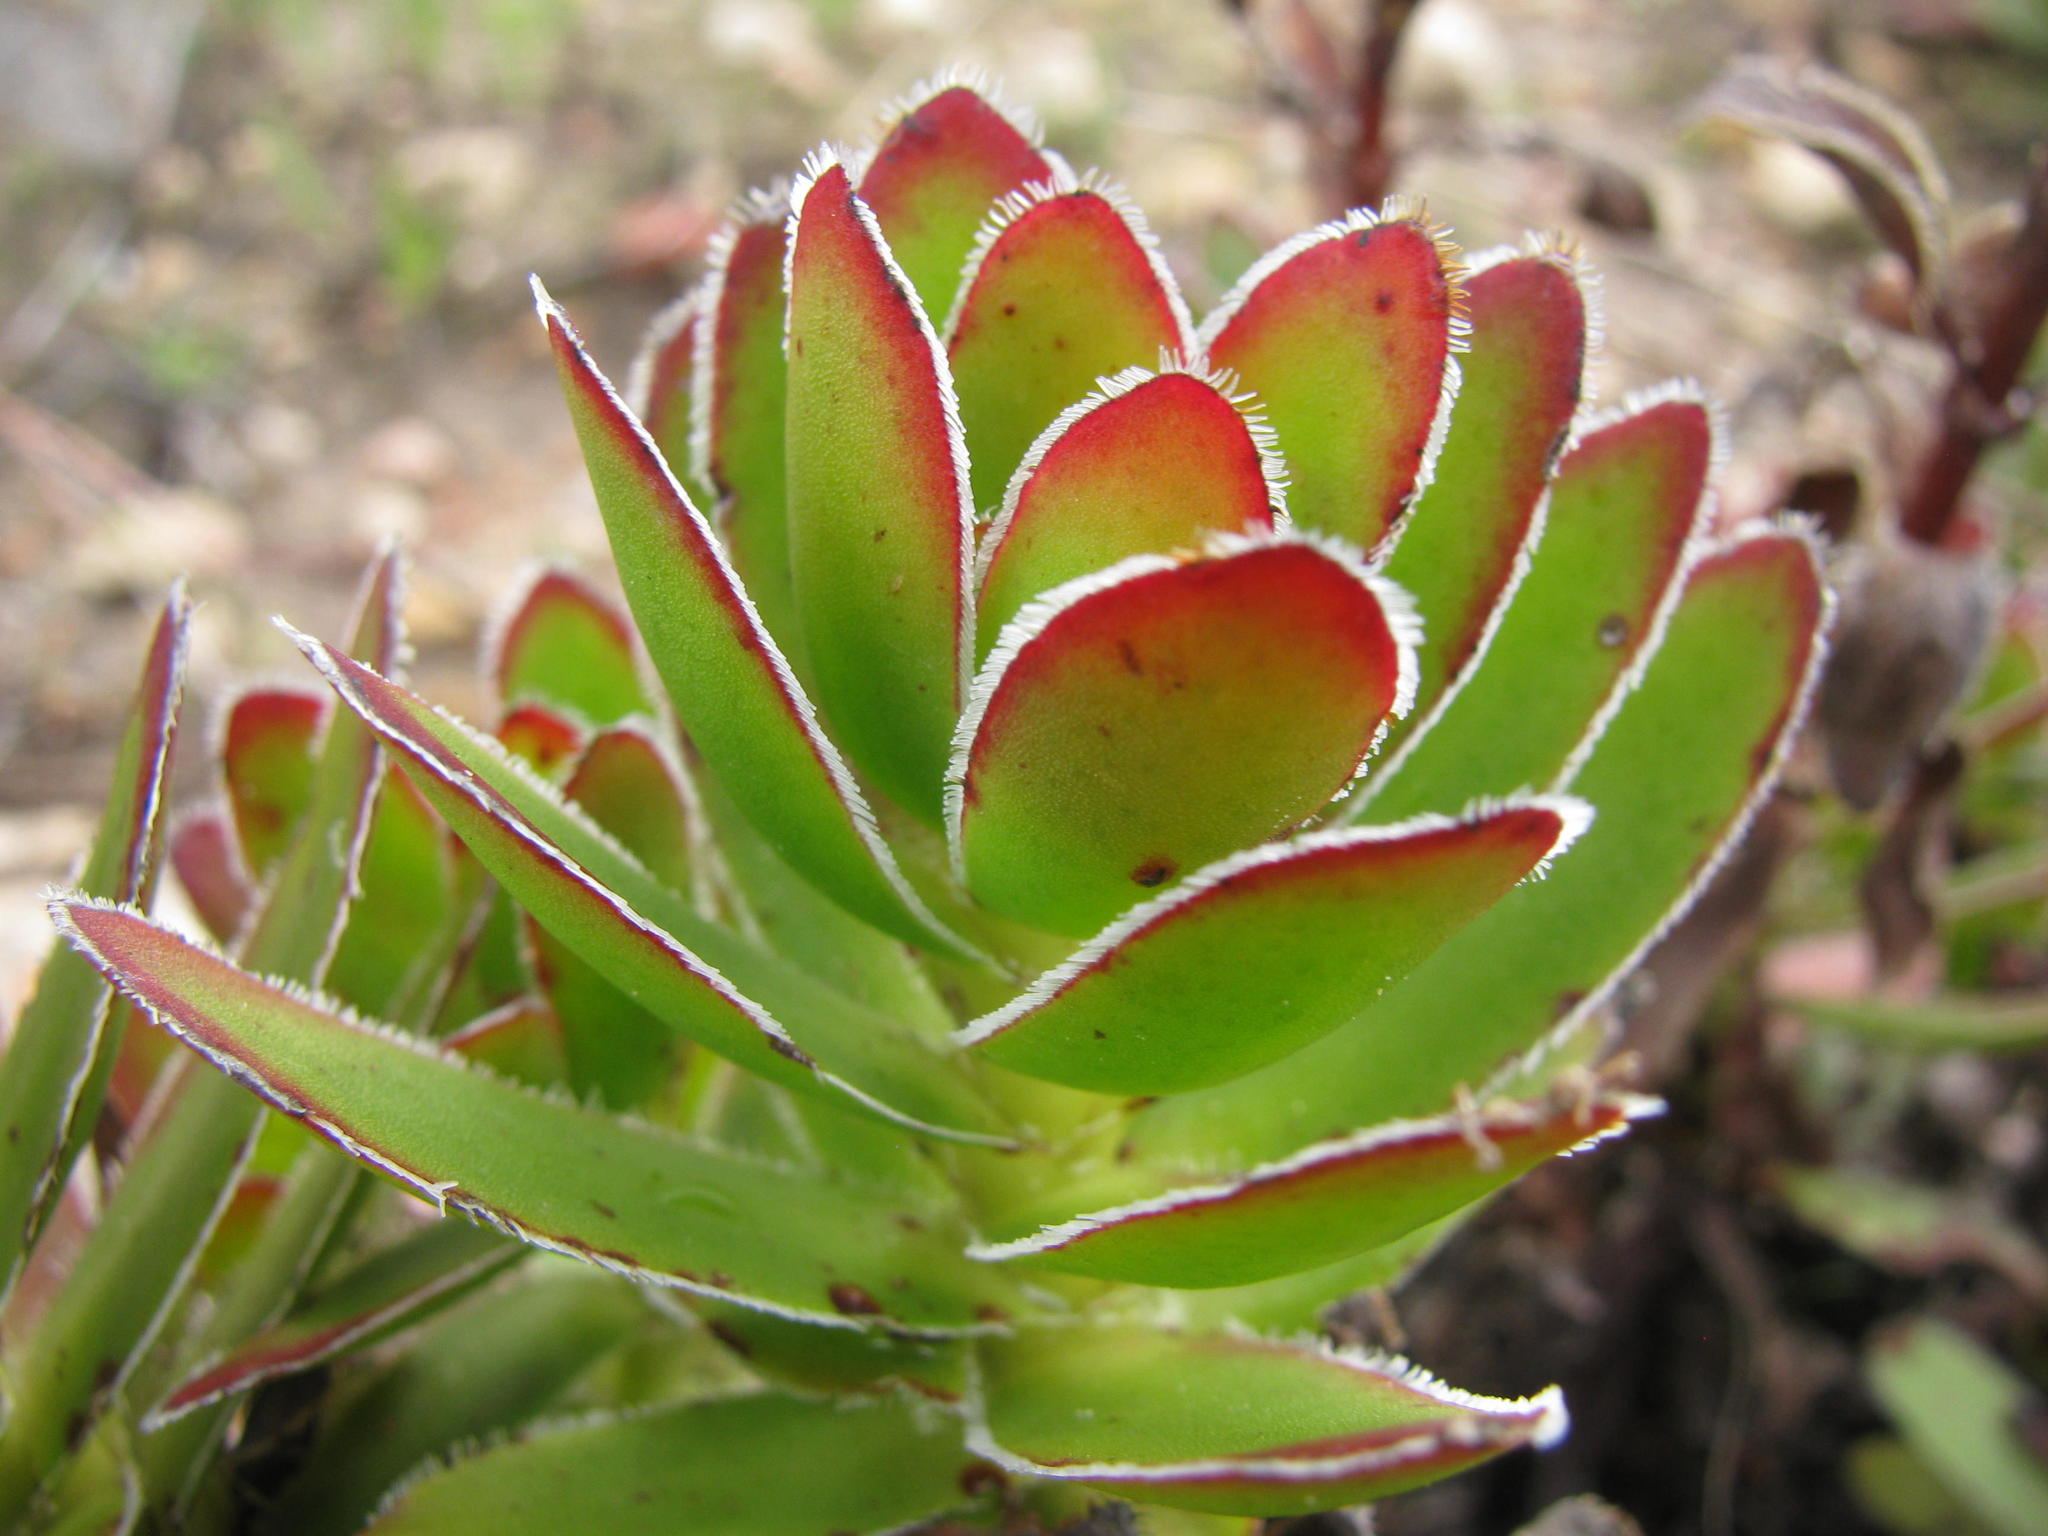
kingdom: Plantae
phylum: Tracheophyta
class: Magnoliopsida
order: Saxifragales
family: Crassulaceae
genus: Crassula
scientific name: Crassula fallax
